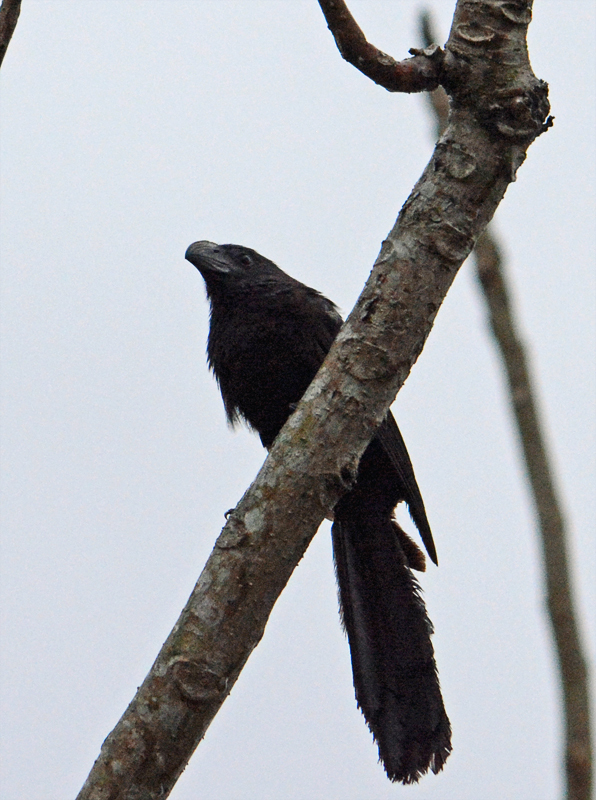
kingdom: Animalia
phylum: Chordata
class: Aves
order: Cuculiformes
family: Cuculidae
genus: Crotophaga
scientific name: Crotophaga sulcirostris
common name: Groove-billed ani
